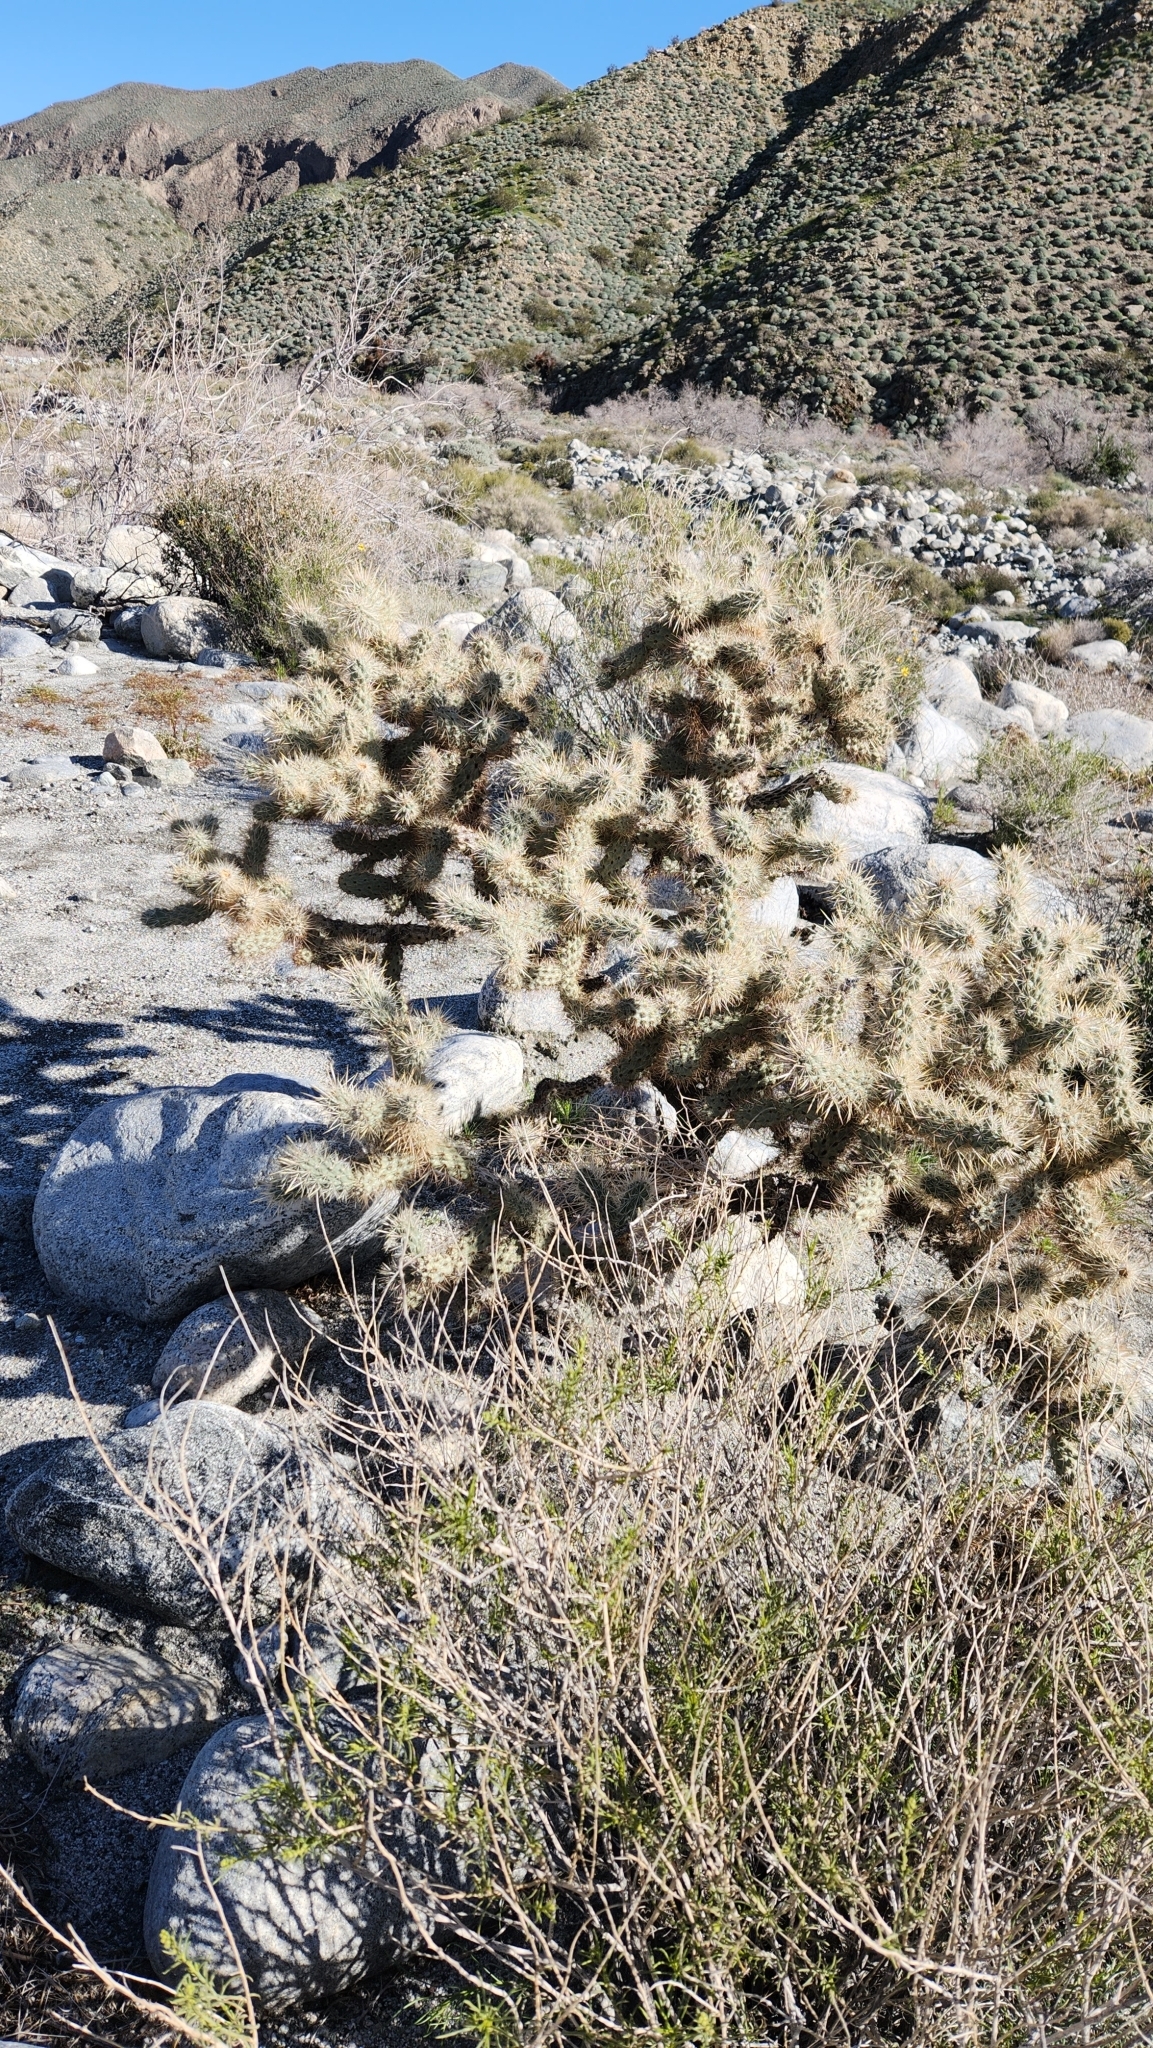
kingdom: Plantae
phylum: Tracheophyta
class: Magnoliopsida
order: Caryophyllales
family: Cactaceae
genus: Cylindropuntia
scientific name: Cylindropuntia echinocarpa
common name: Ground cholla
